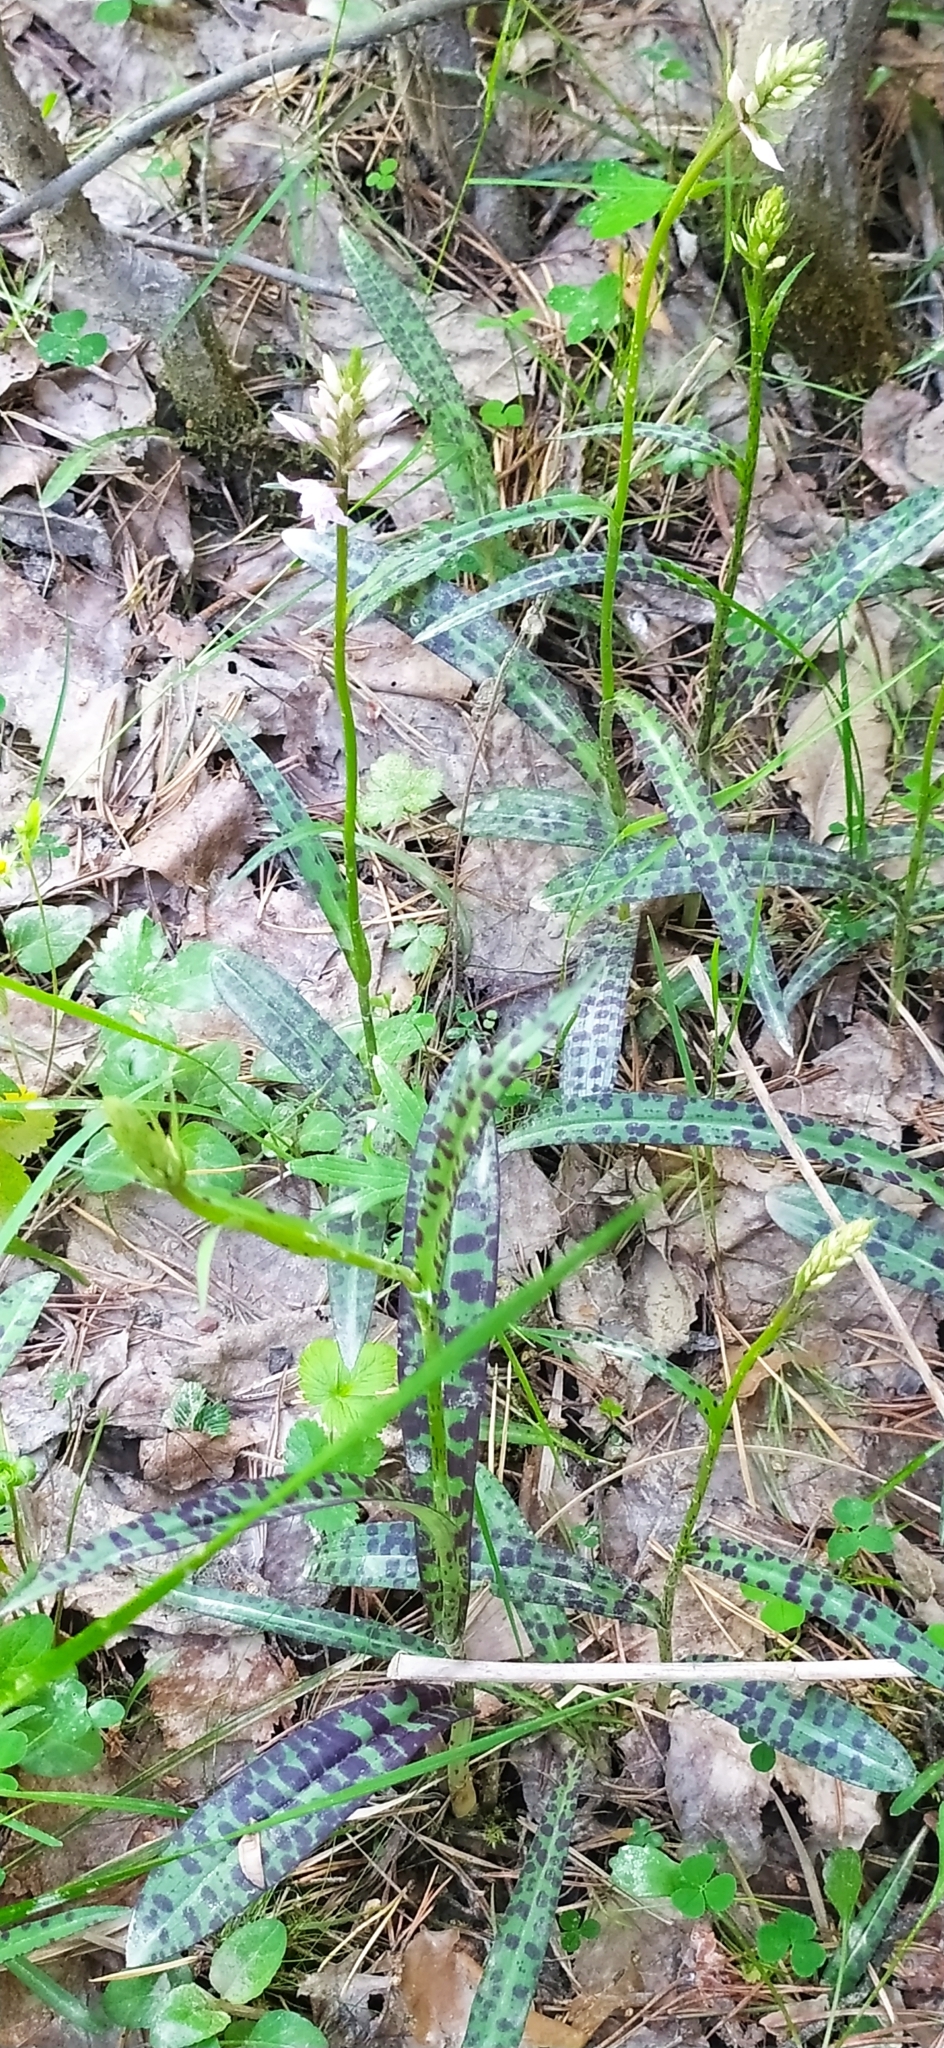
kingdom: Plantae
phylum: Tracheophyta
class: Liliopsida
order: Asparagales
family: Orchidaceae
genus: Dactylorhiza
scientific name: Dactylorhiza maculata
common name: Heath spotted-orchid
